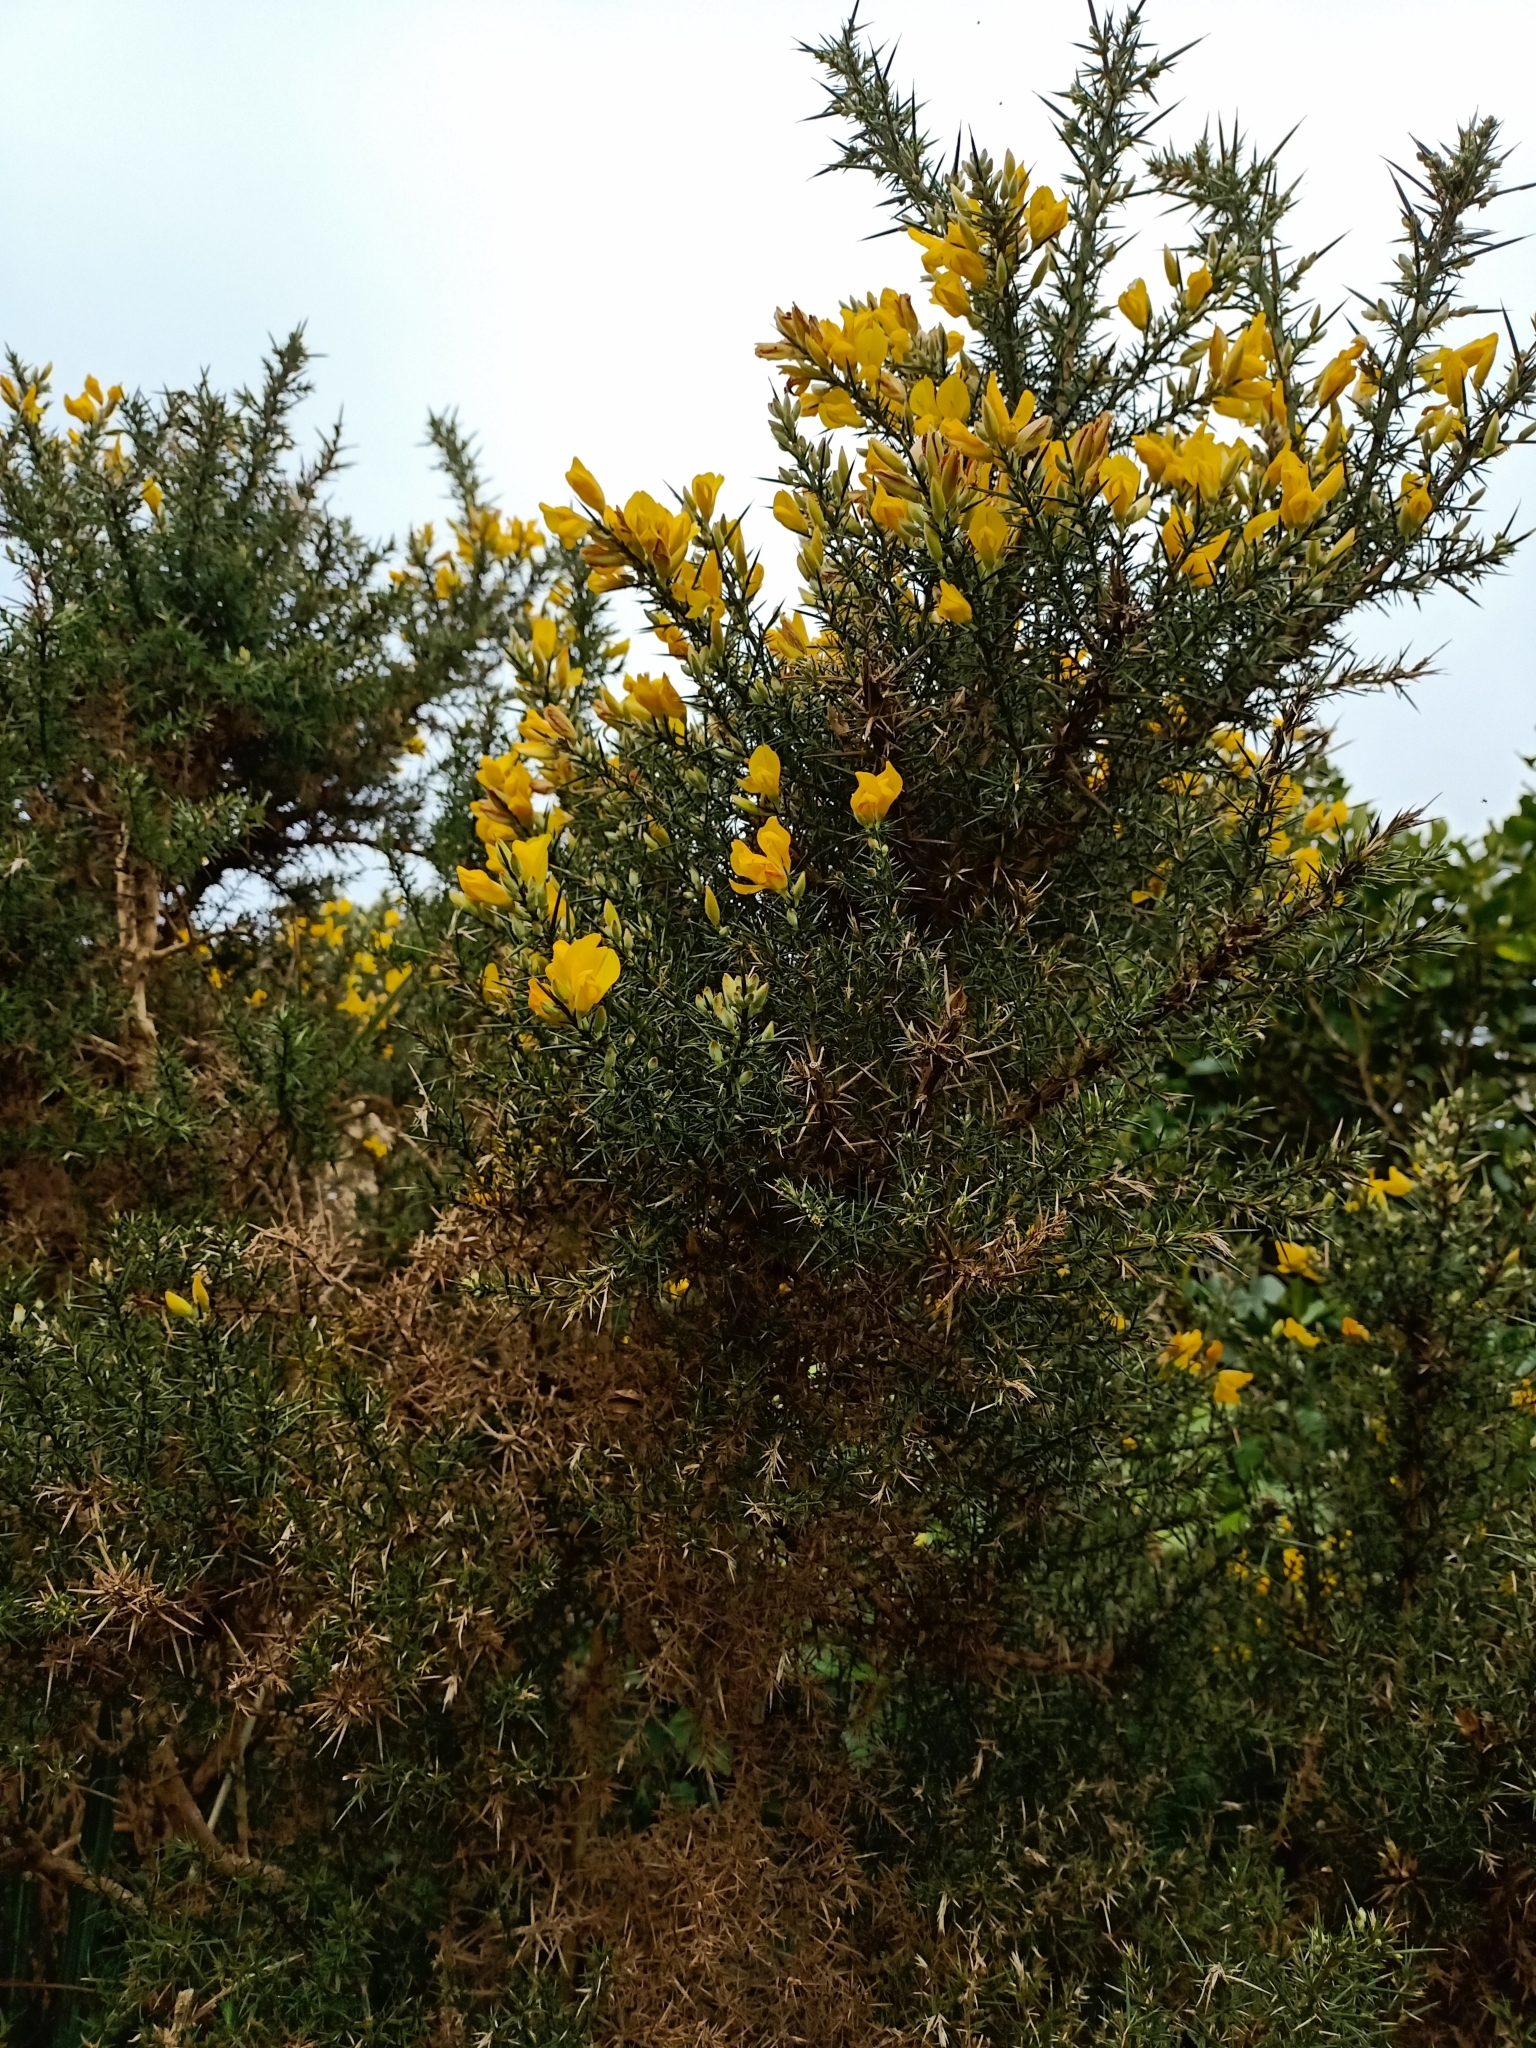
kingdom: Plantae
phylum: Tracheophyta
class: Magnoliopsida
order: Fabales
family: Fabaceae
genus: Ulex
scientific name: Ulex europaeus
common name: Common gorse
